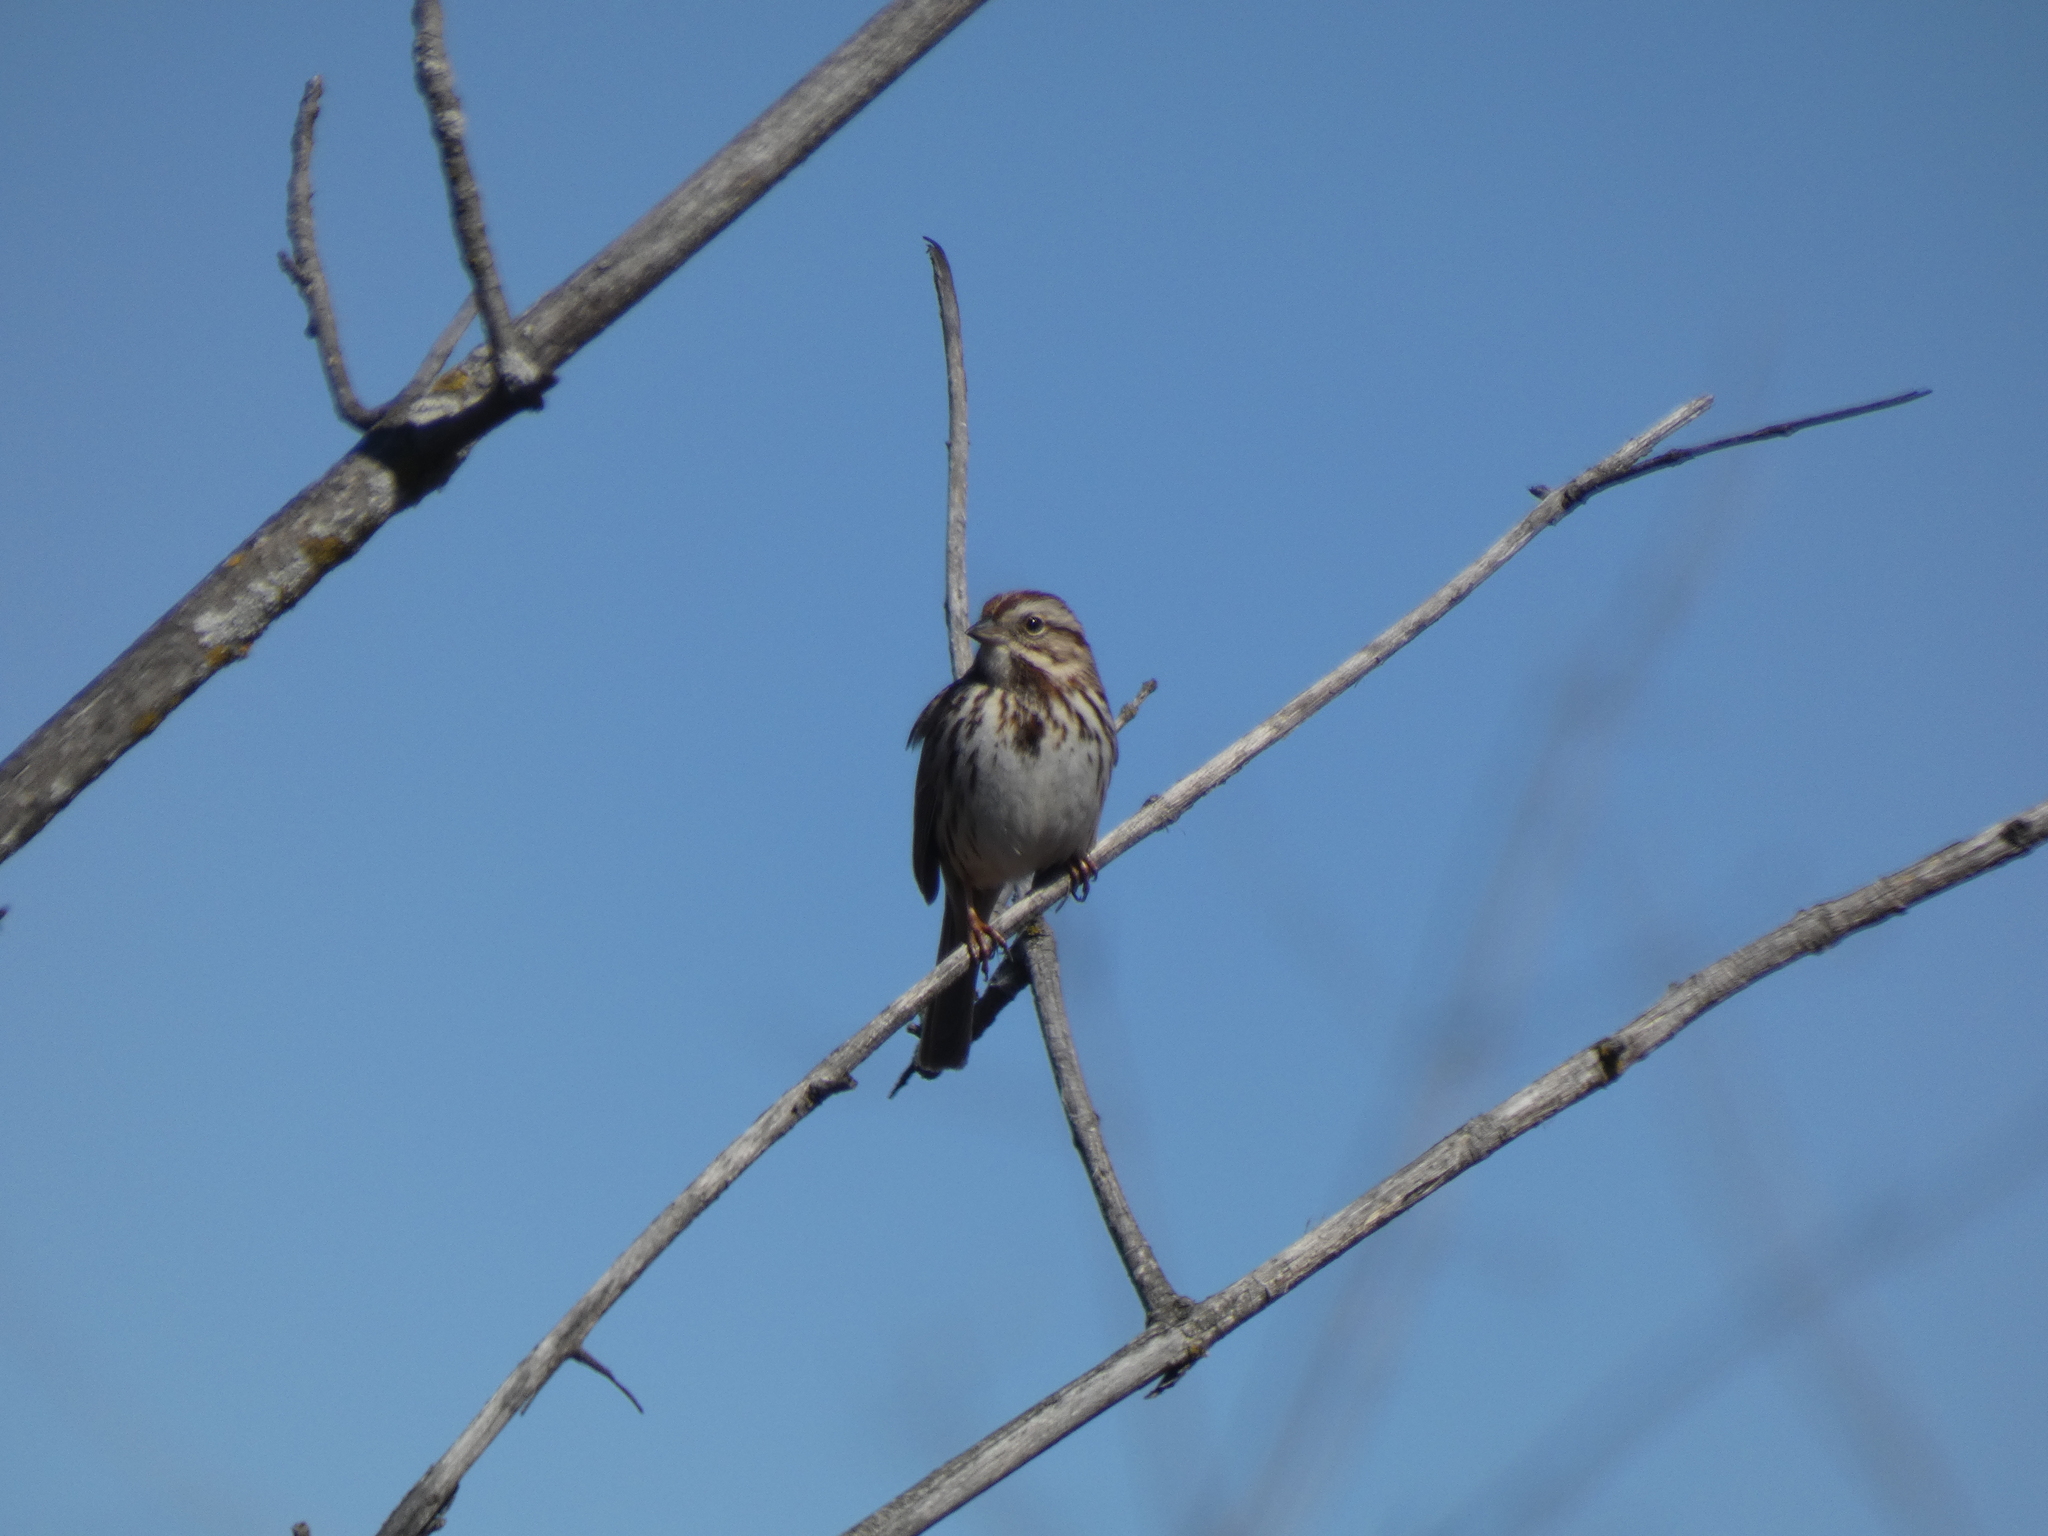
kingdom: Animalia
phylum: Chordata
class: Aves
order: Passeriformes
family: Passerellidae
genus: Melospiza
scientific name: Melospiza melodia
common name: Song sparrow
